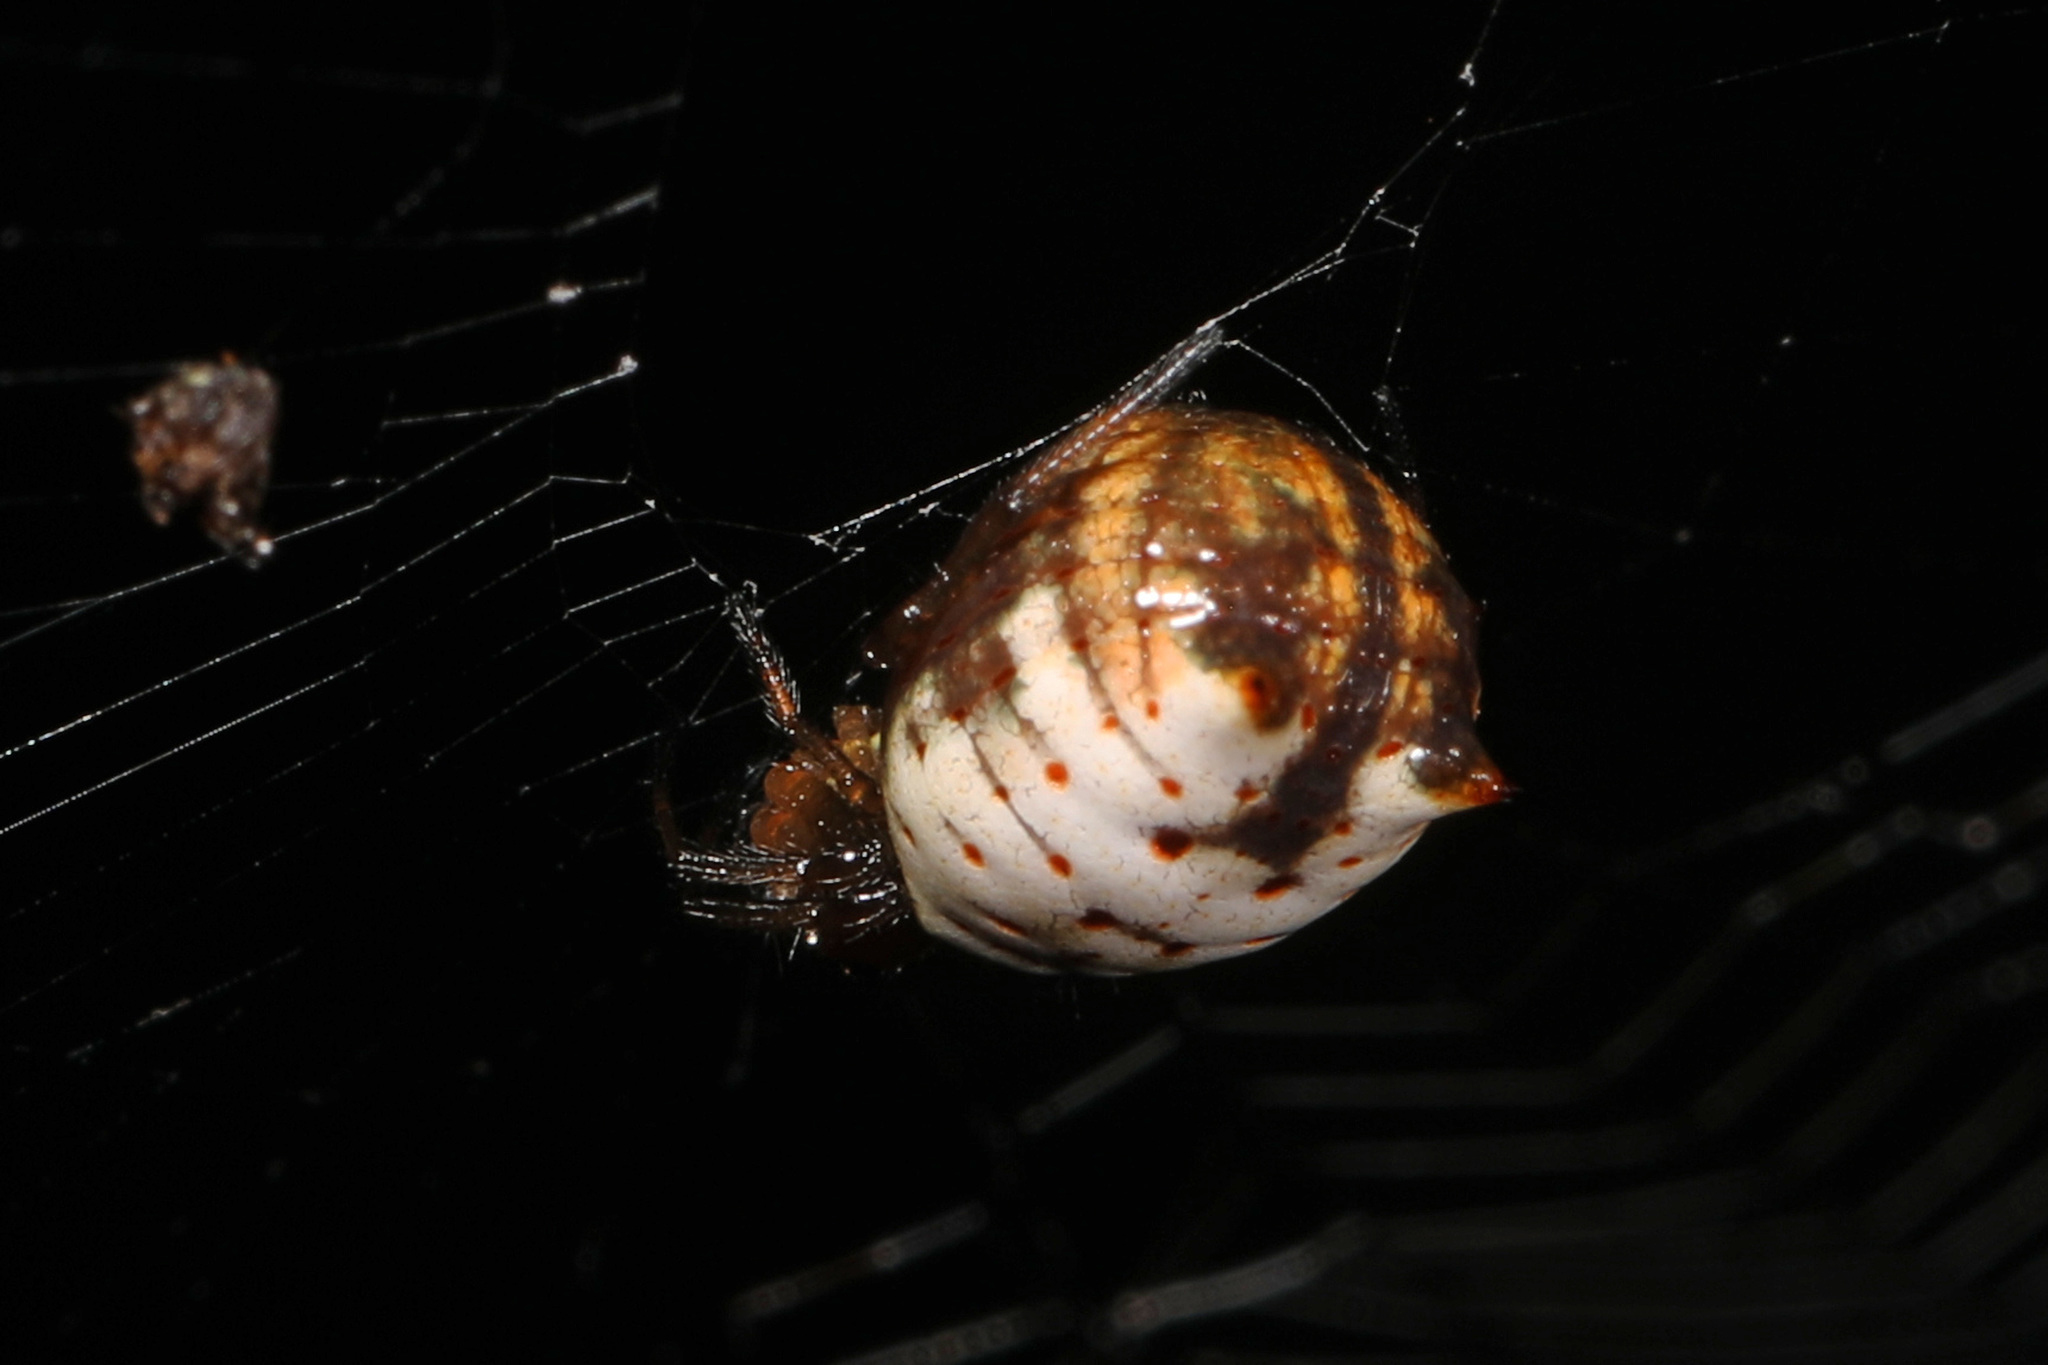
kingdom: Animalia
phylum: Arthropoda
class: Arachnida
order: Araneae
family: Araneidae
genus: Micrathena
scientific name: Micrathena mitrata
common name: Orb weavers
